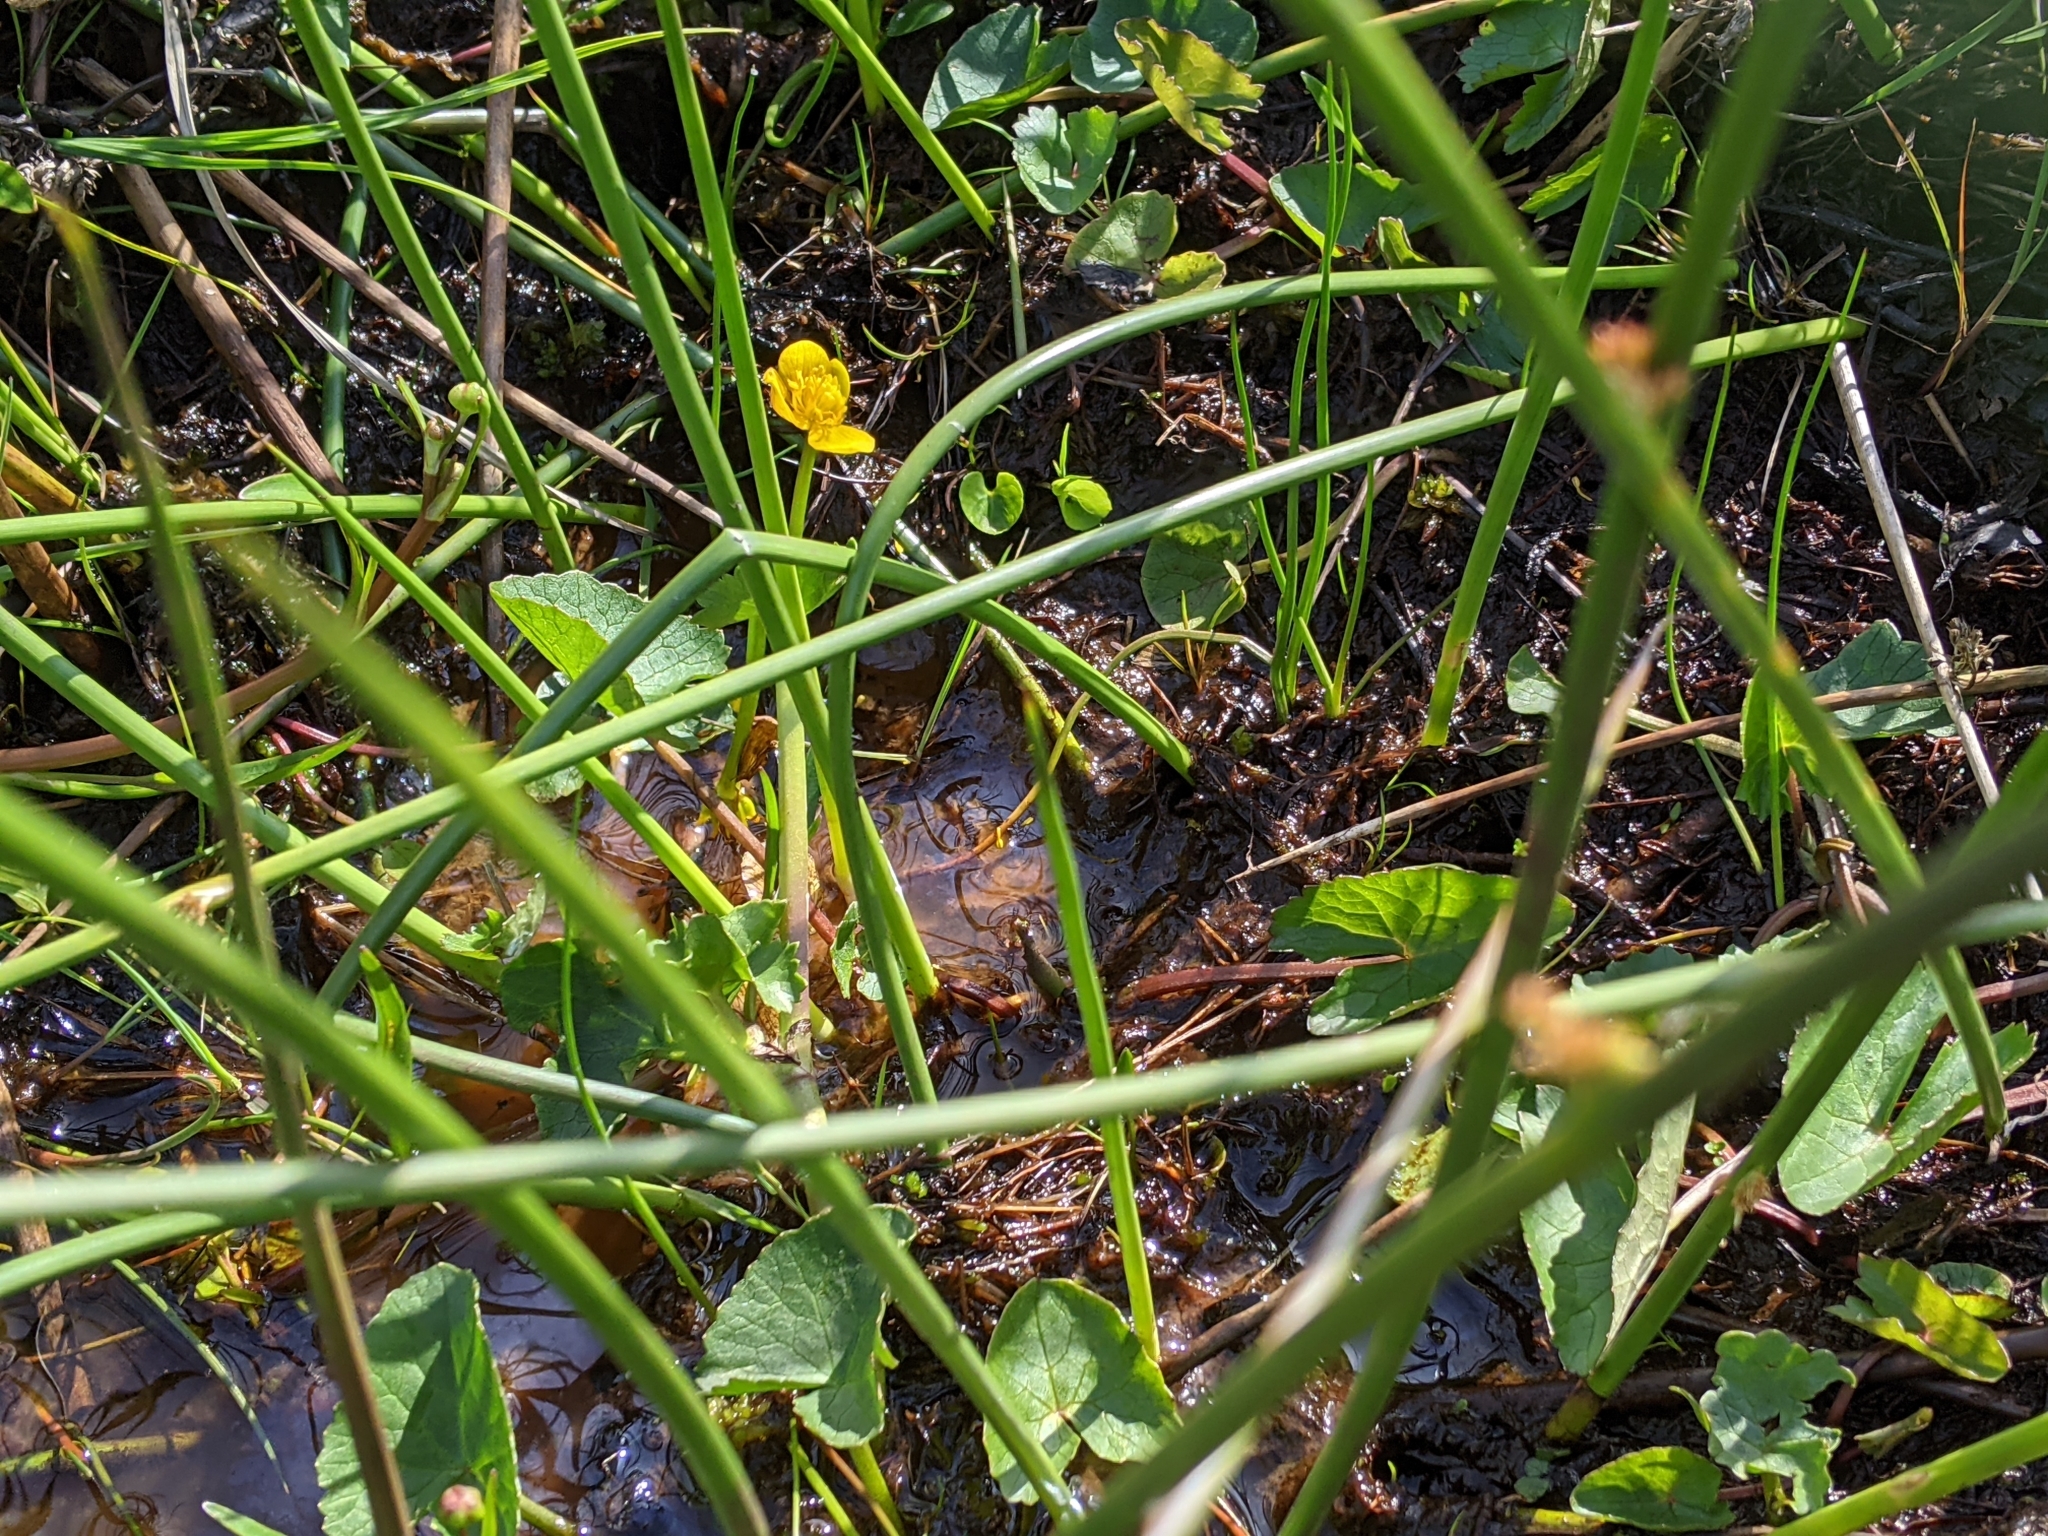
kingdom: Plantae
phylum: Tracheophyta
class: Magnoliopsida
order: Ranunculales
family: Ranunculaceae
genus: Caltha
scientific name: Caltha palustris
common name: Marsh marigold
